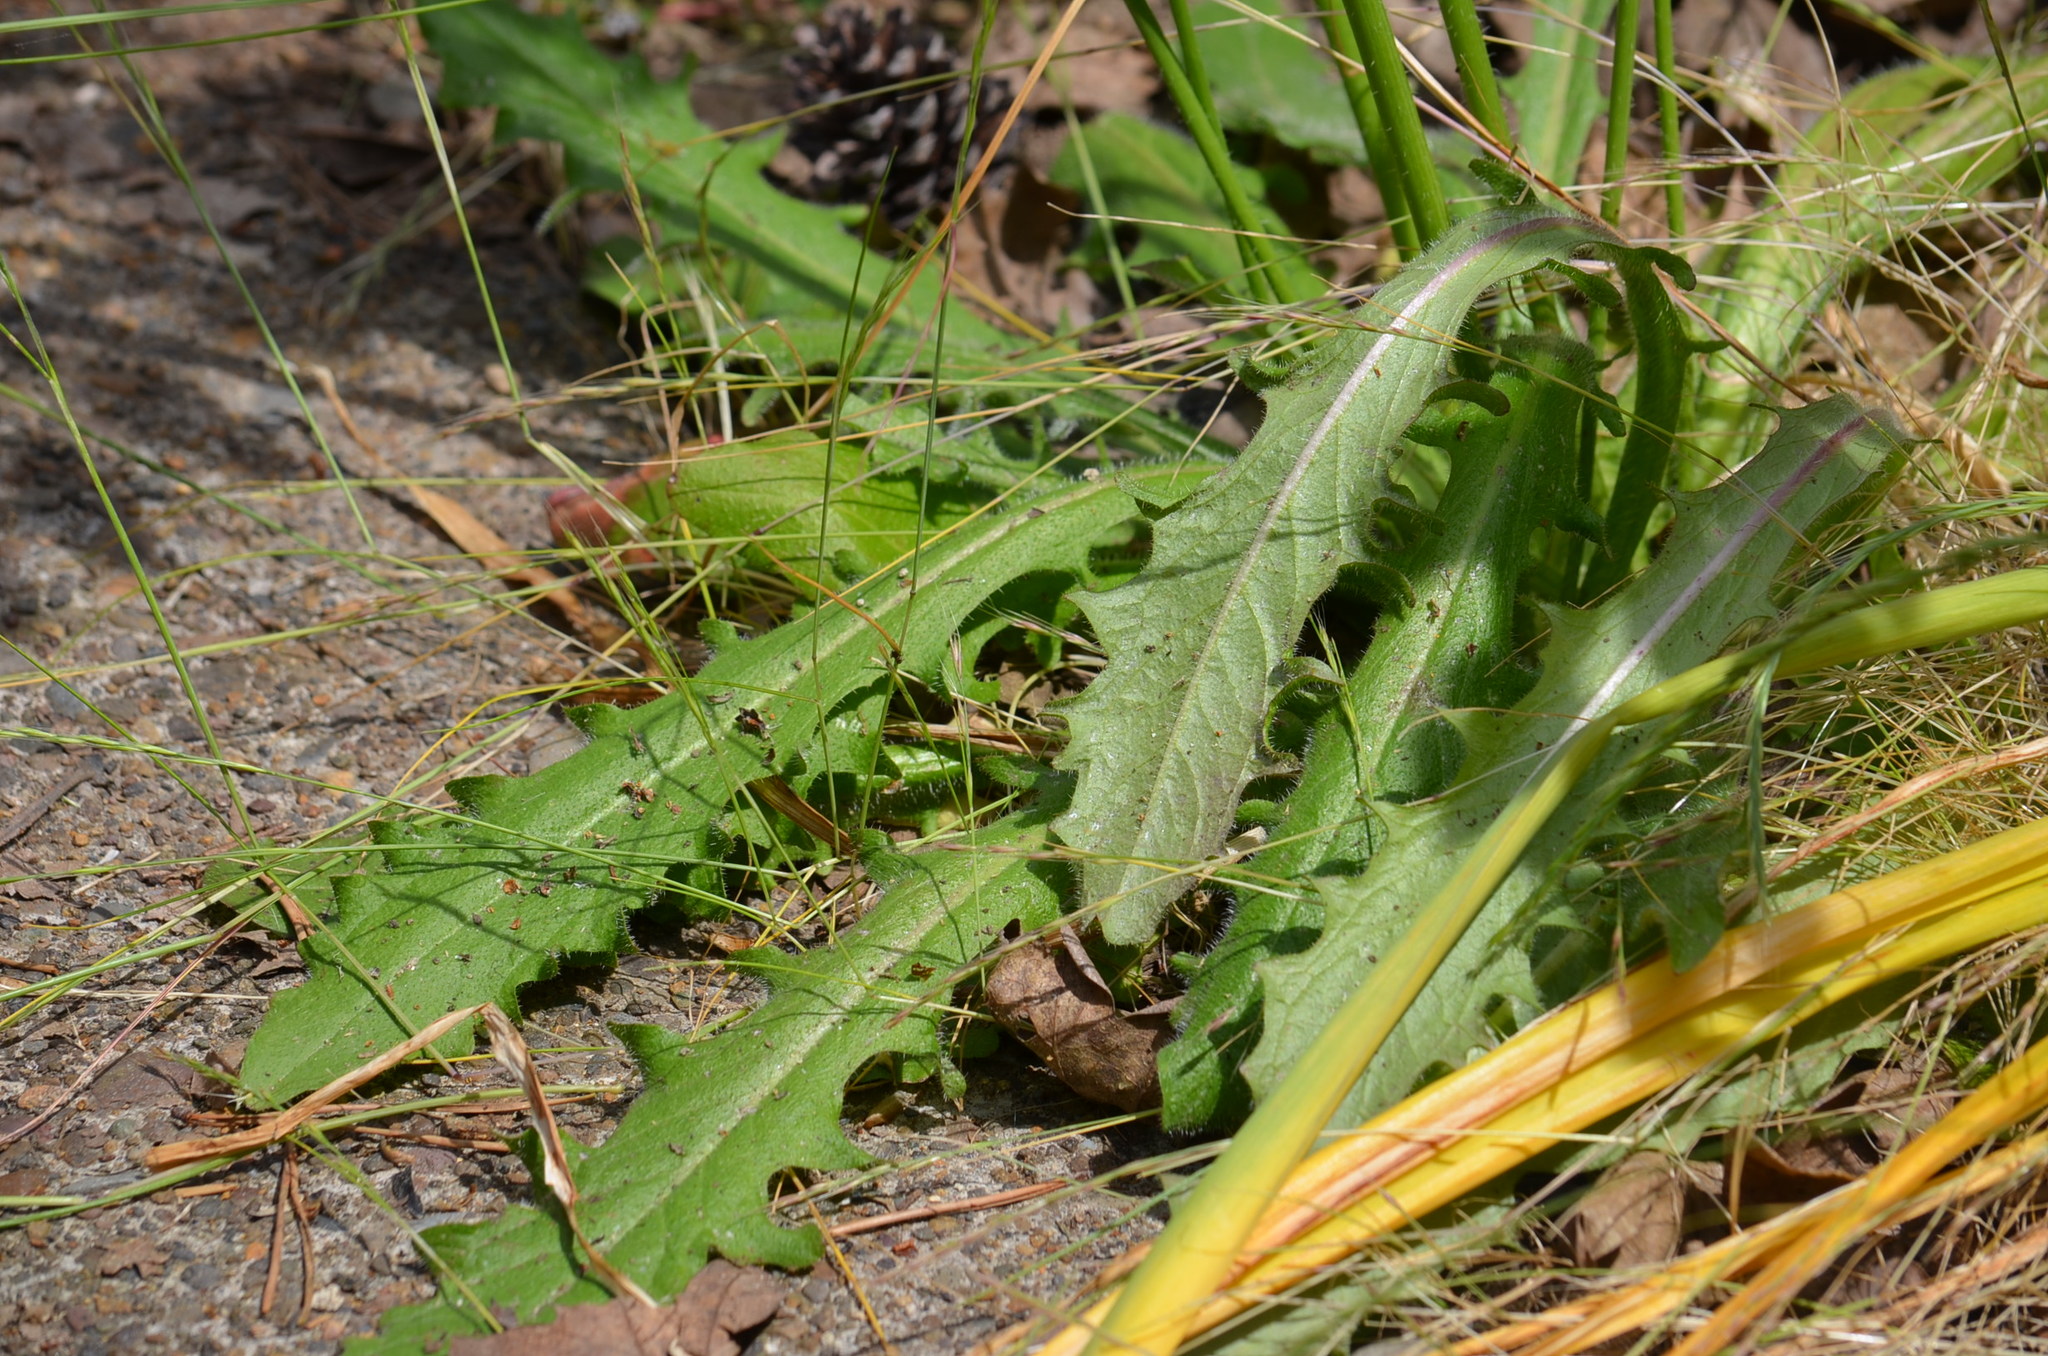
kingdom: Plantae
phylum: Tracheophyta
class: Magnoliopsida
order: Asterales
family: Asteraceae
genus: Hypochaeris
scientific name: Hypochaeris radicata
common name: Flatweed
